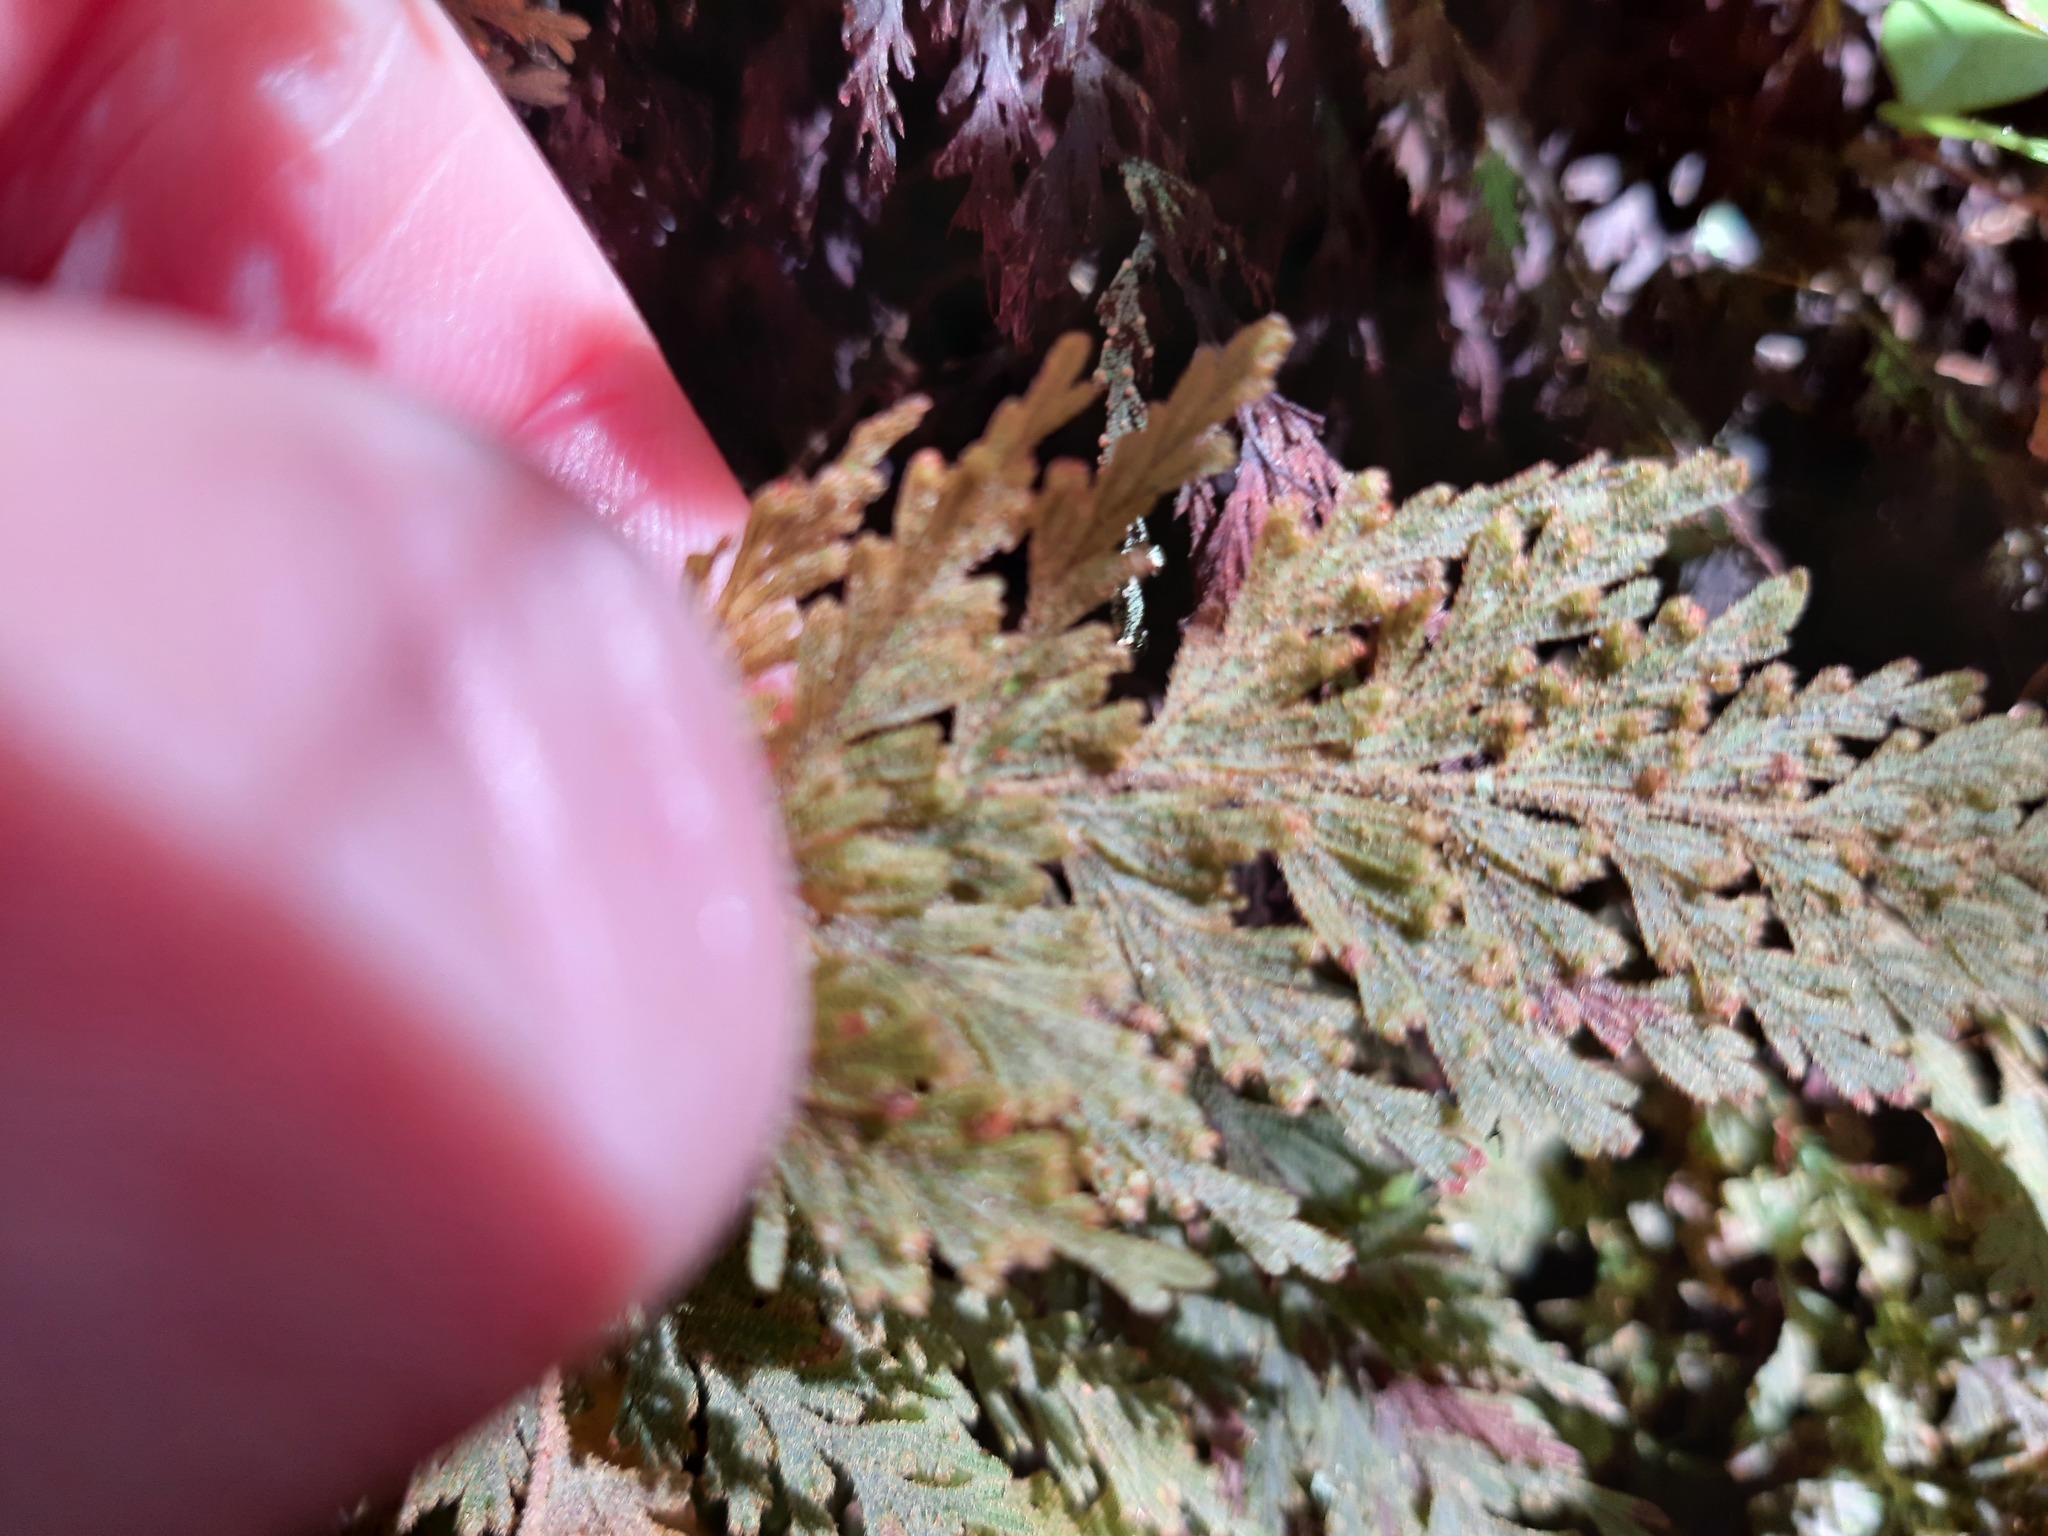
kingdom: Plantae
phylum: Tracheophyta
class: Polypodiopsida
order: Hymenophyllales
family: Hymenophyllaceae
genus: Hymenophyllum
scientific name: Hymenophyllum frankliniae
